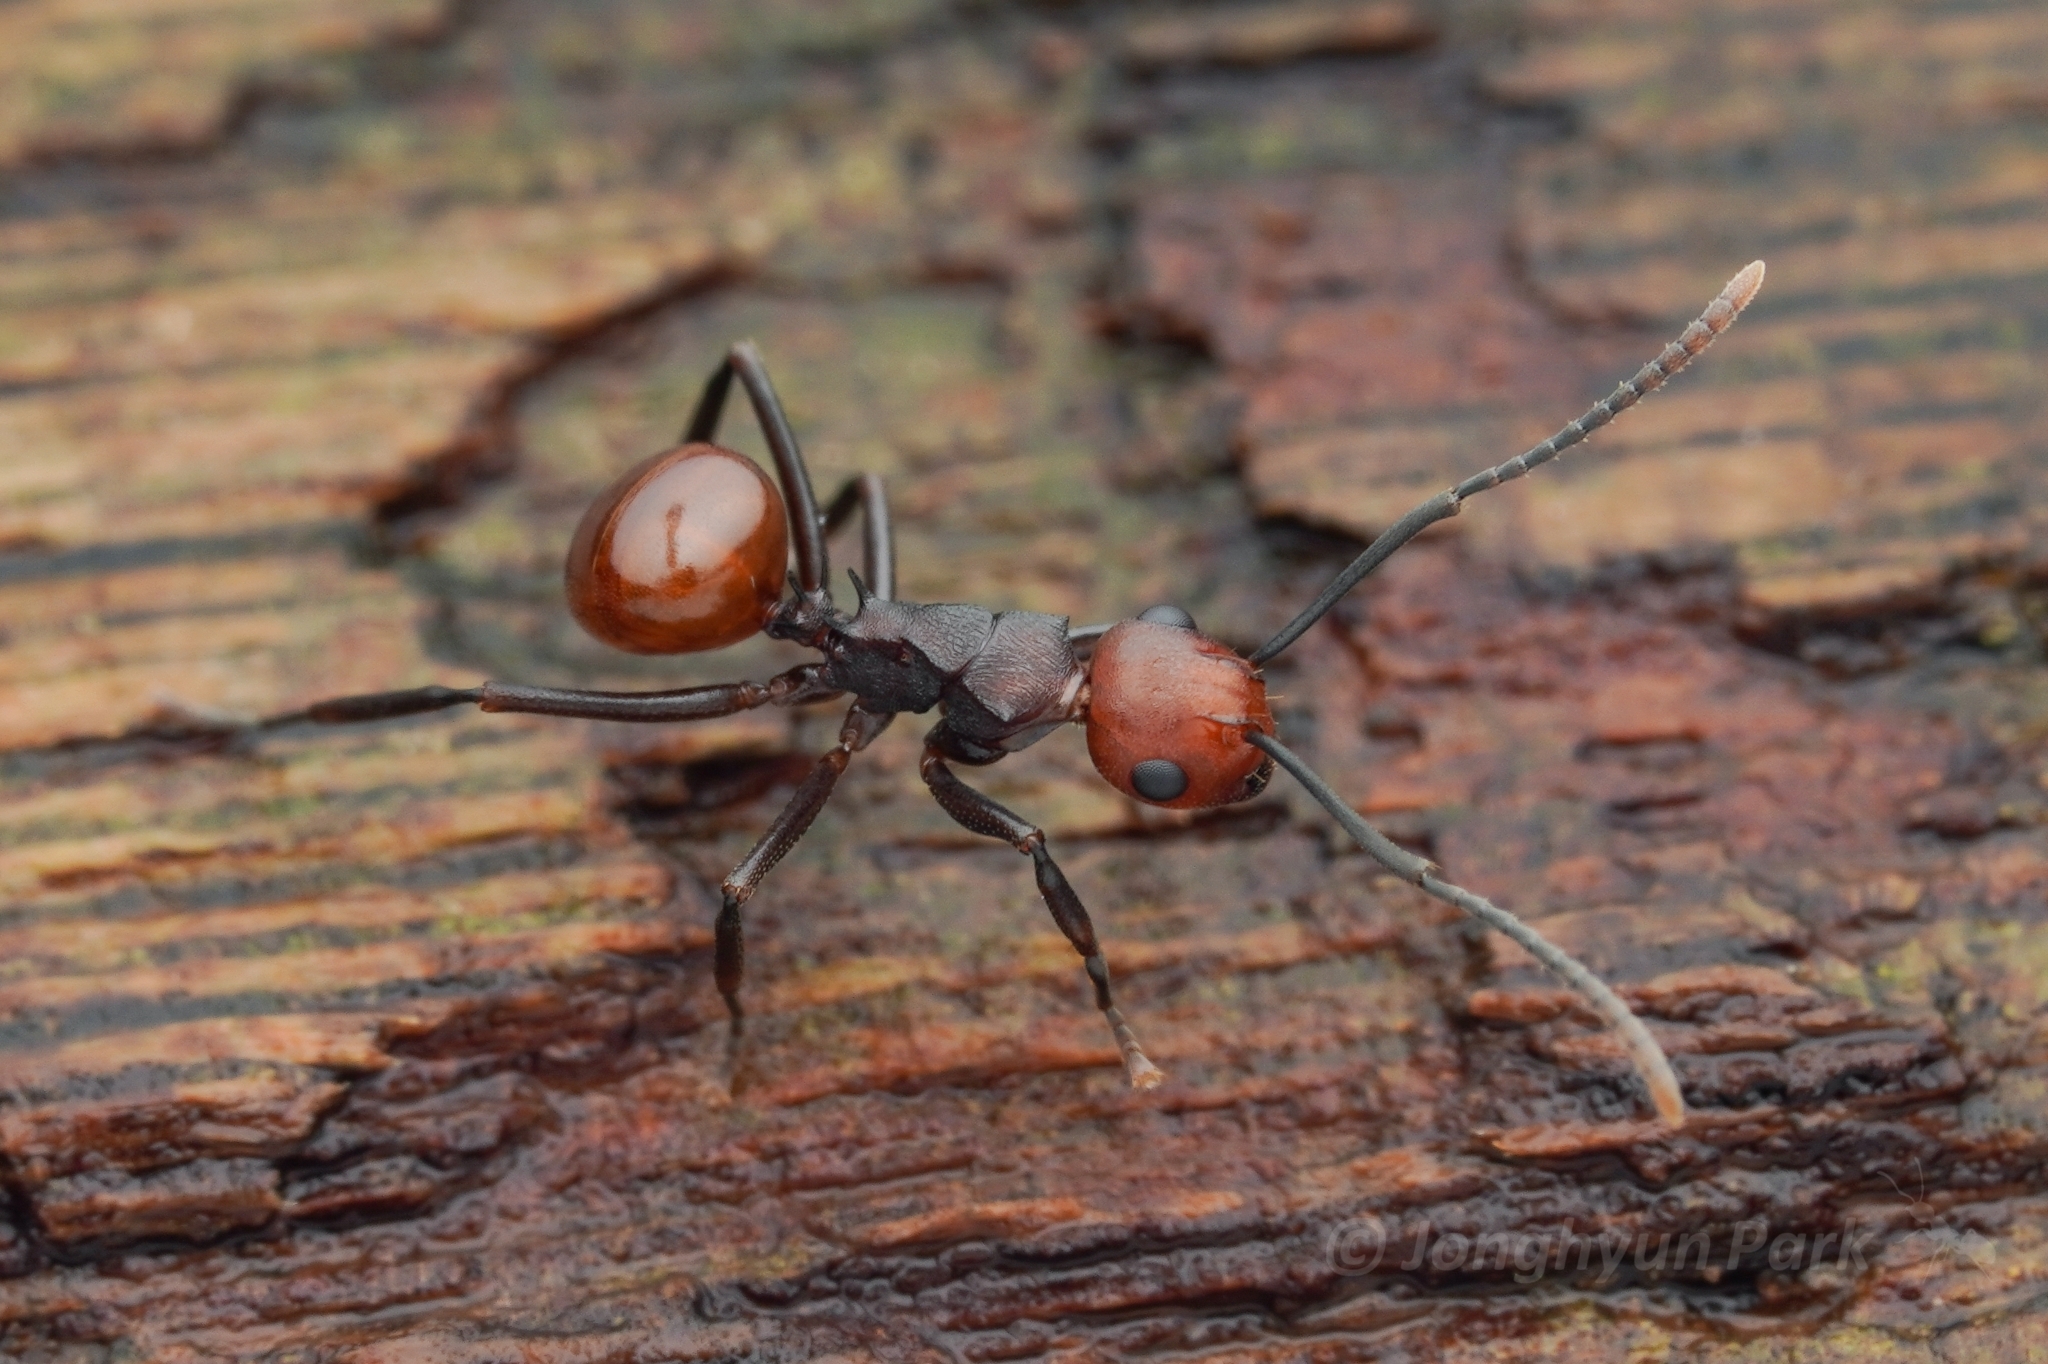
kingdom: Animalia
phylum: Arthropoda
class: Insecta
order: Hymenoptera
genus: Myrmothrinax
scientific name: Myrmothrinax
